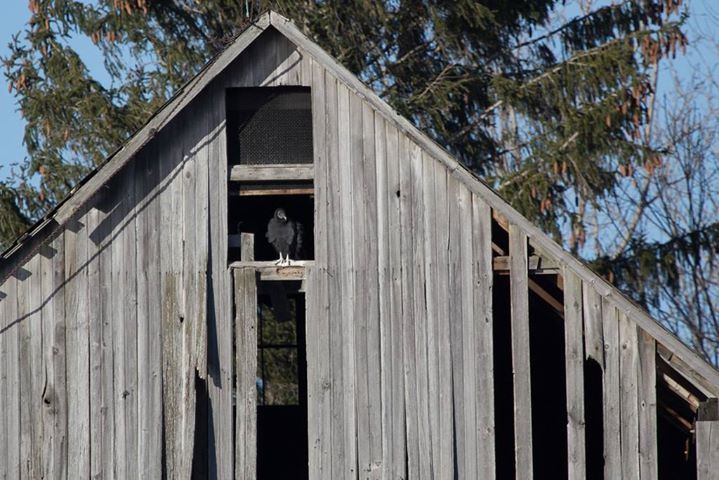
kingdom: Animalia
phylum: Chordata
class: Aves
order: Accipitriformes
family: Cathartidae
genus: Coragyps
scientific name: Coragyps atratus
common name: Black vulture
